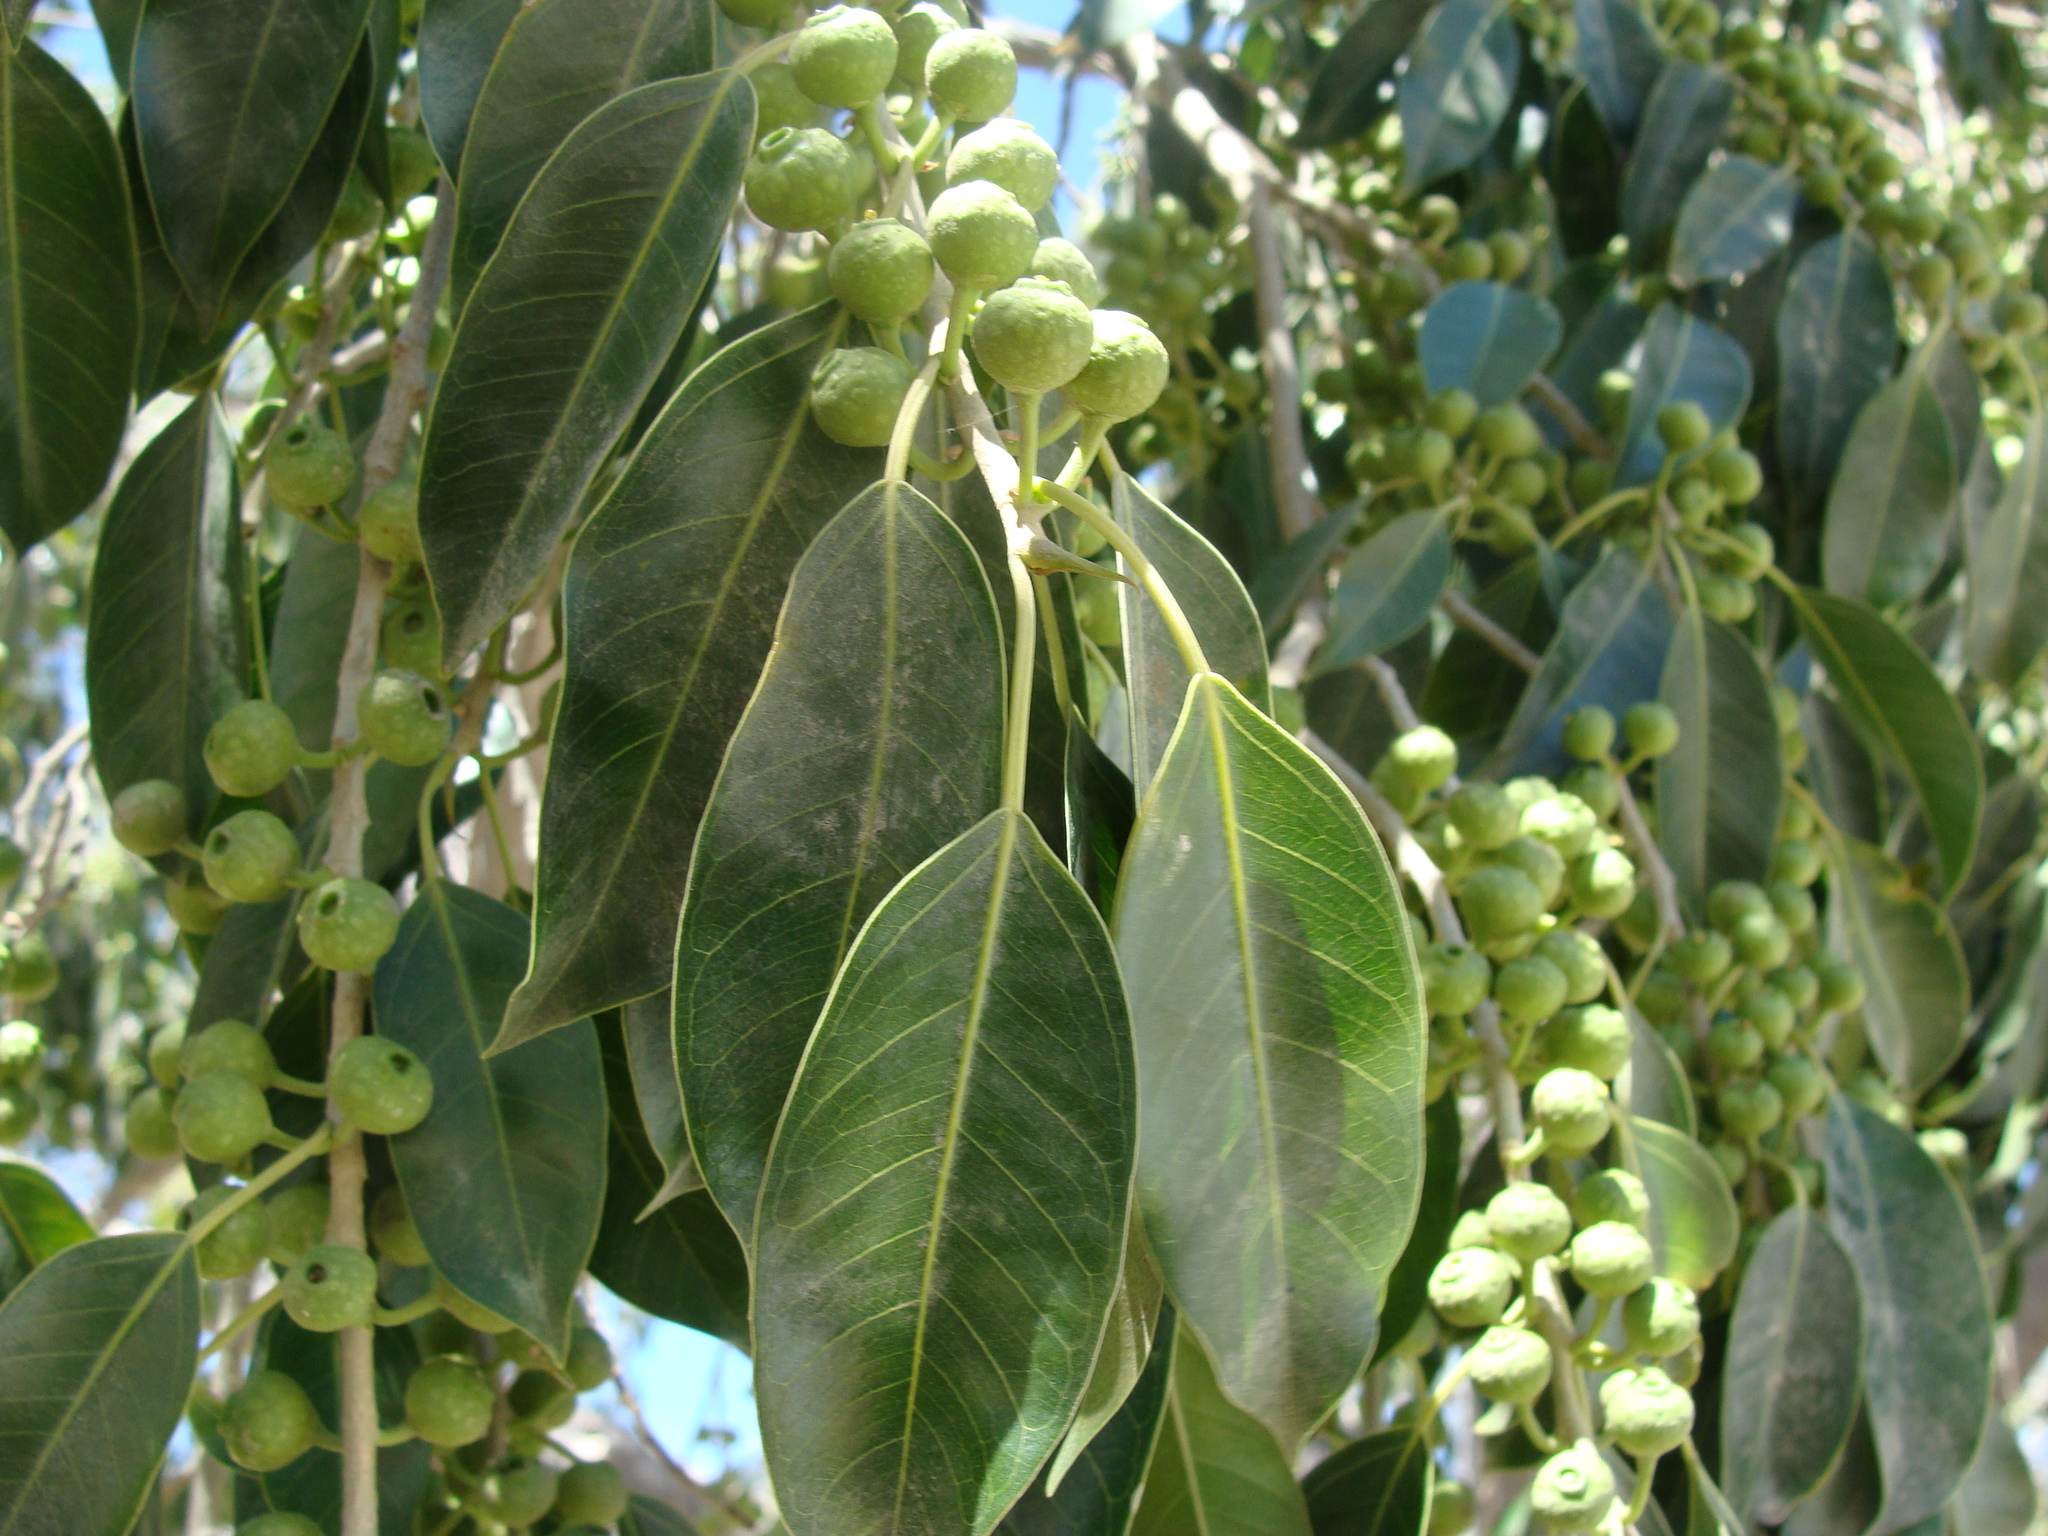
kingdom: Plantae
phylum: Tracheophyta
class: Magnoliopsida
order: Rosales
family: Moraceae
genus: Ficus
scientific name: Ficus pertusa
